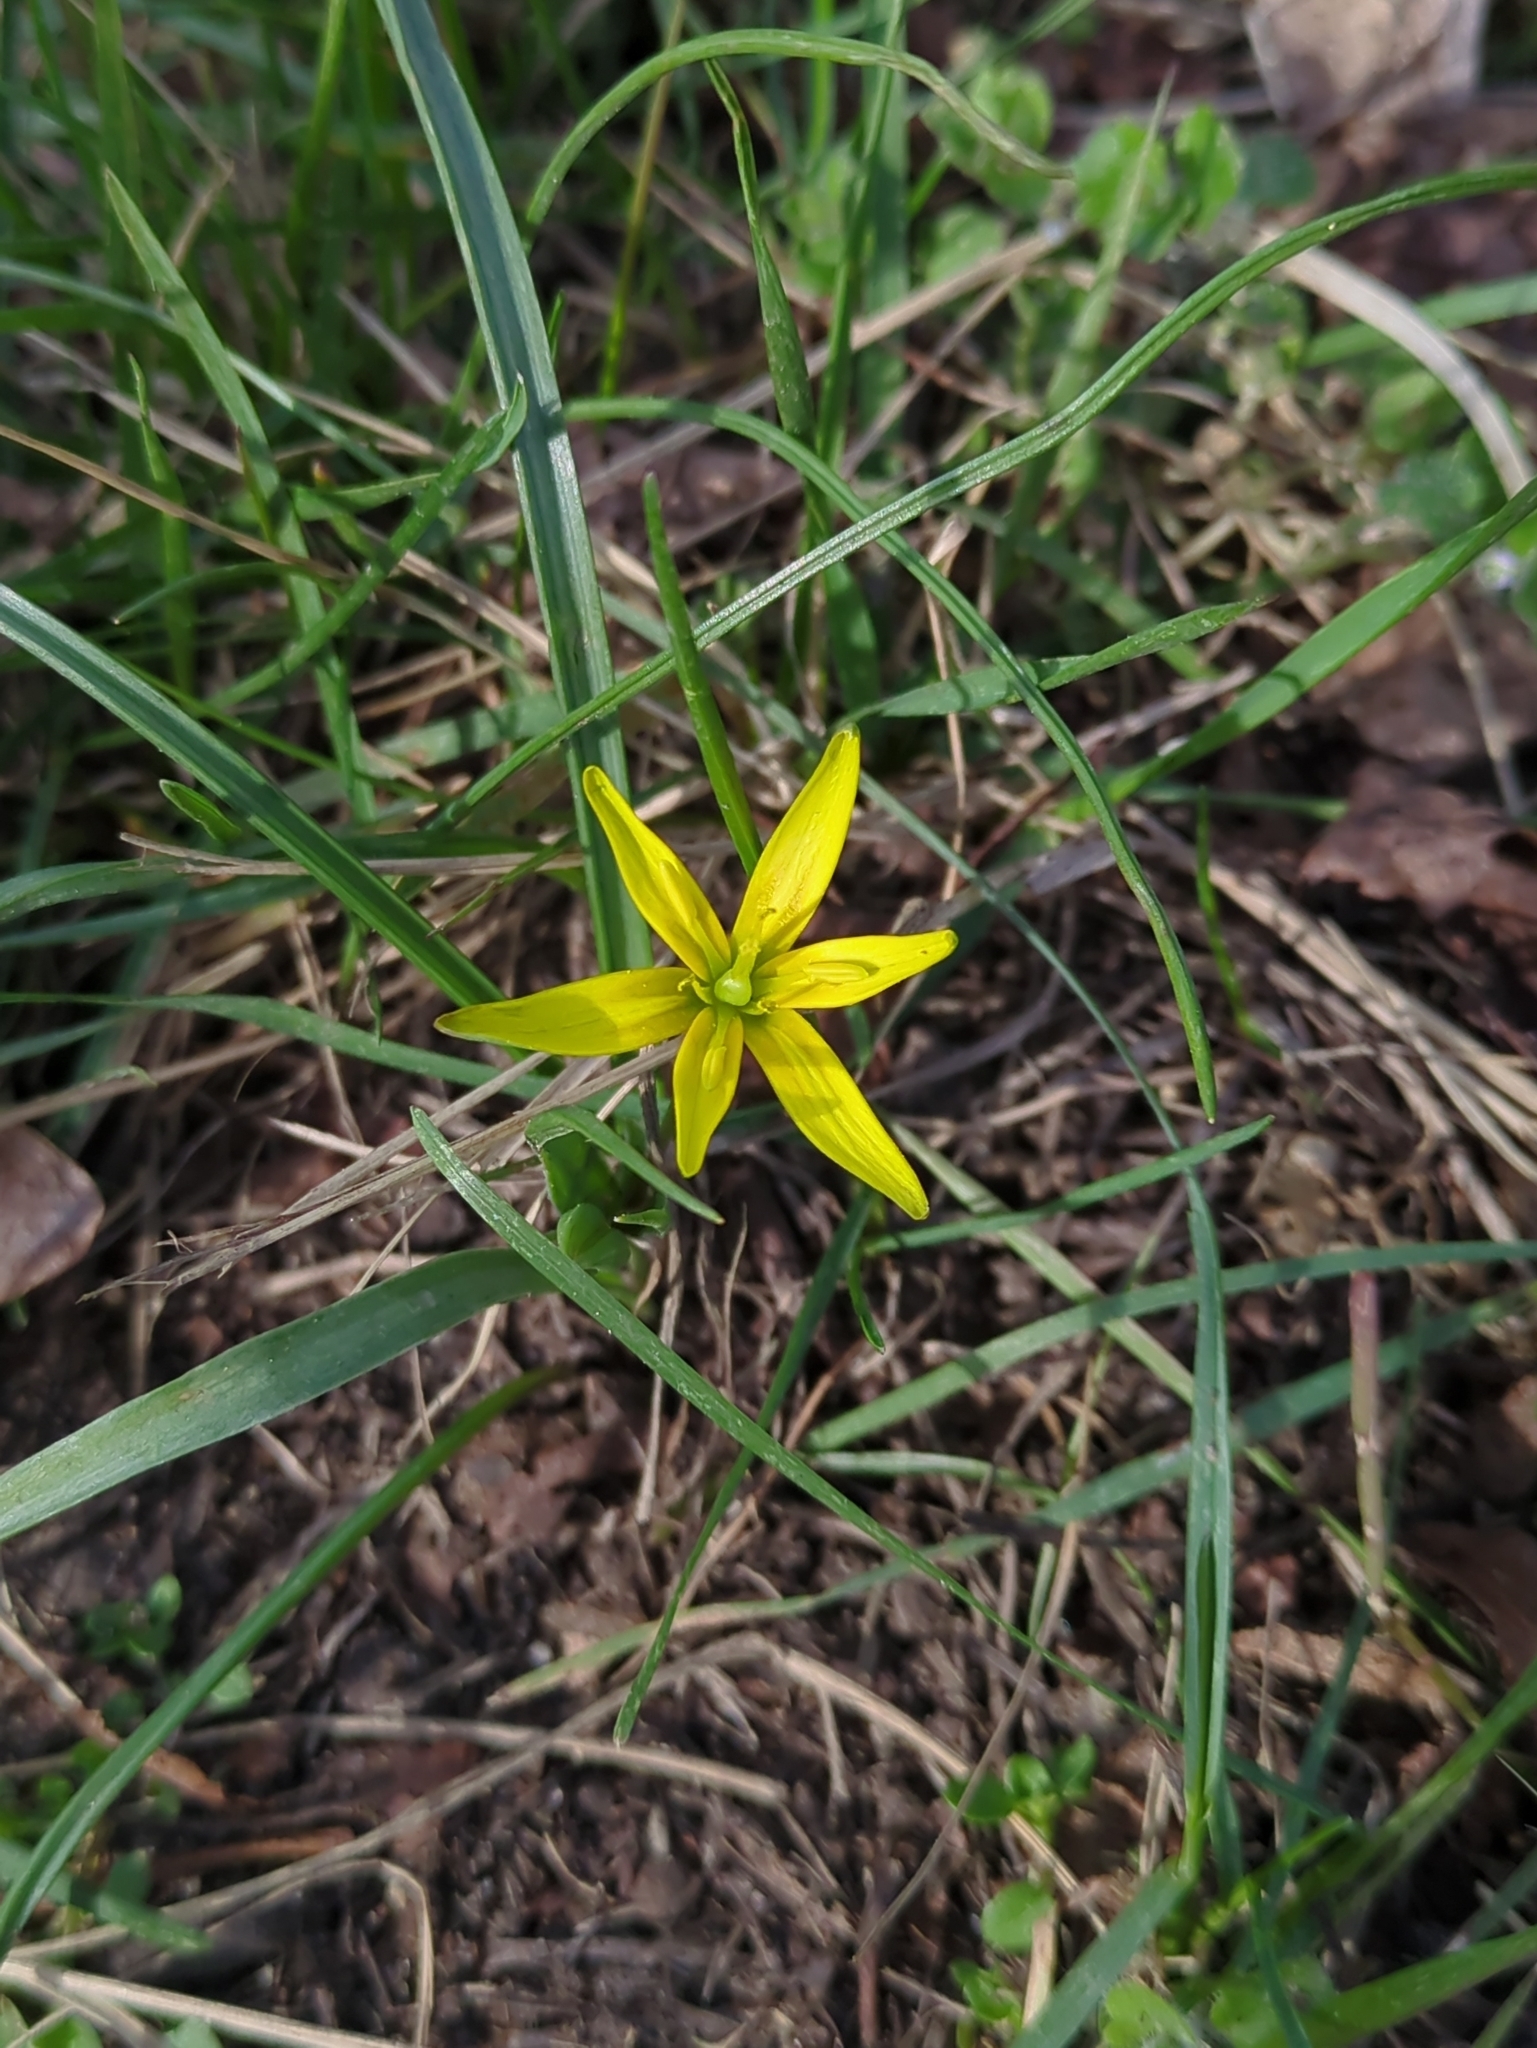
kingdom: Plantae
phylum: Tracheophyta
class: Liliopsida
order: Liliales
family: Liliaceae
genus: Gagea
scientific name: Gagea pratensis
